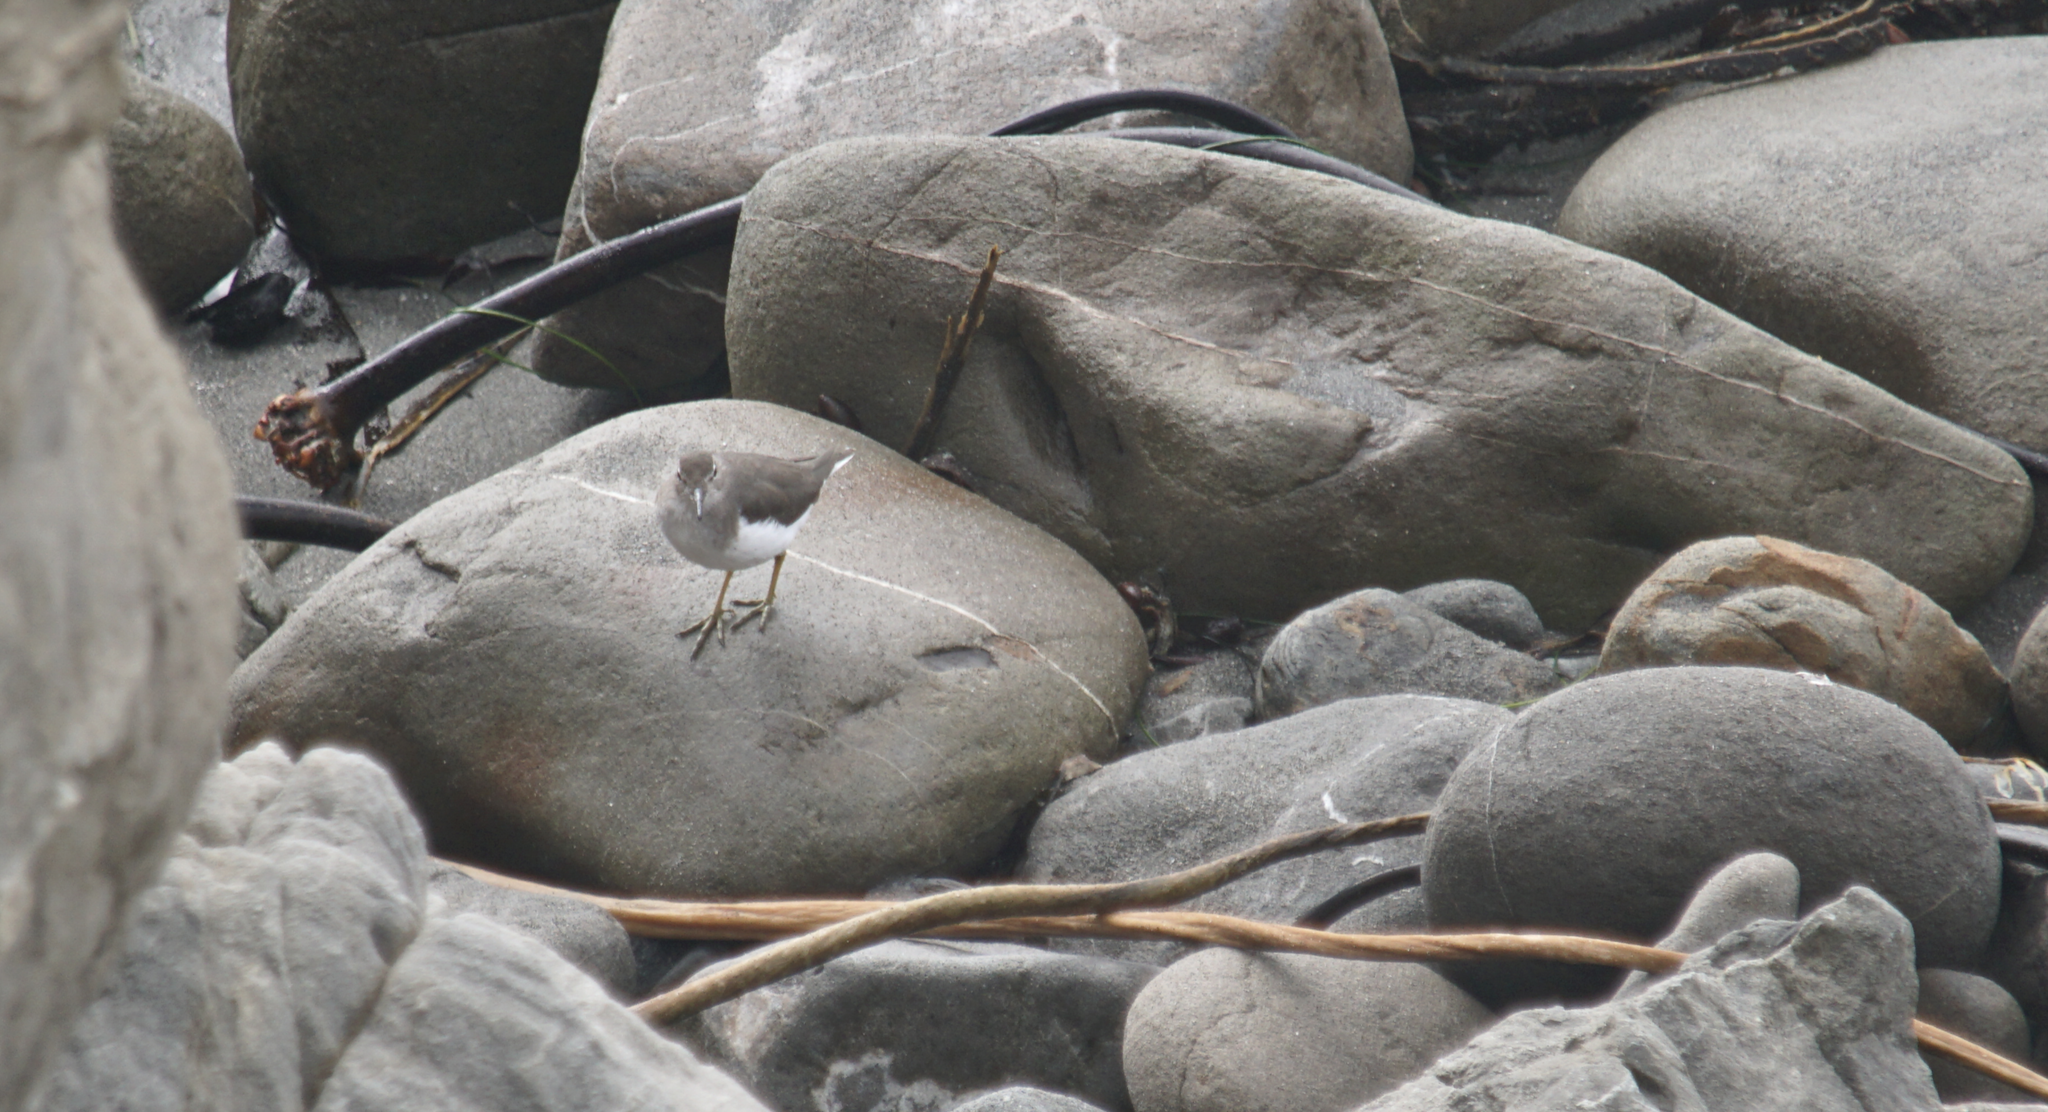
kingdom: Animalia
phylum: Chordata
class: Aves
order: Charadriiformes
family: Scolopacidae
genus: Actitis
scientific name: Actitis macularius
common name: Spotted sandpiper
